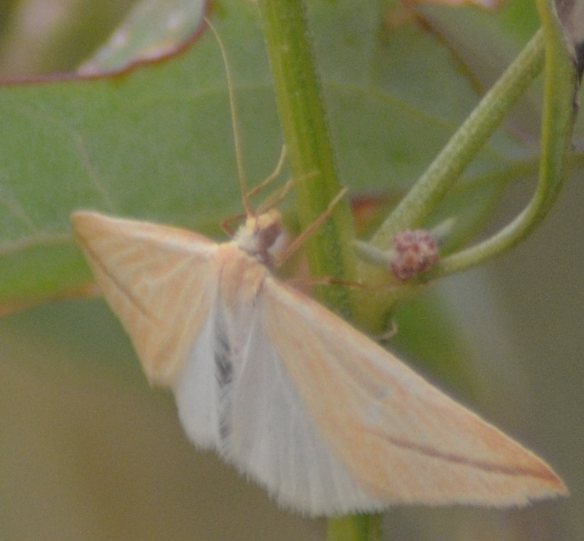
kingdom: Animalia
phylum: Arthropoda
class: Insecta
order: Lepidoptera
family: Geometridae
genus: Rhodometra
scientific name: Rhodometra sacraria
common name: Vestal
